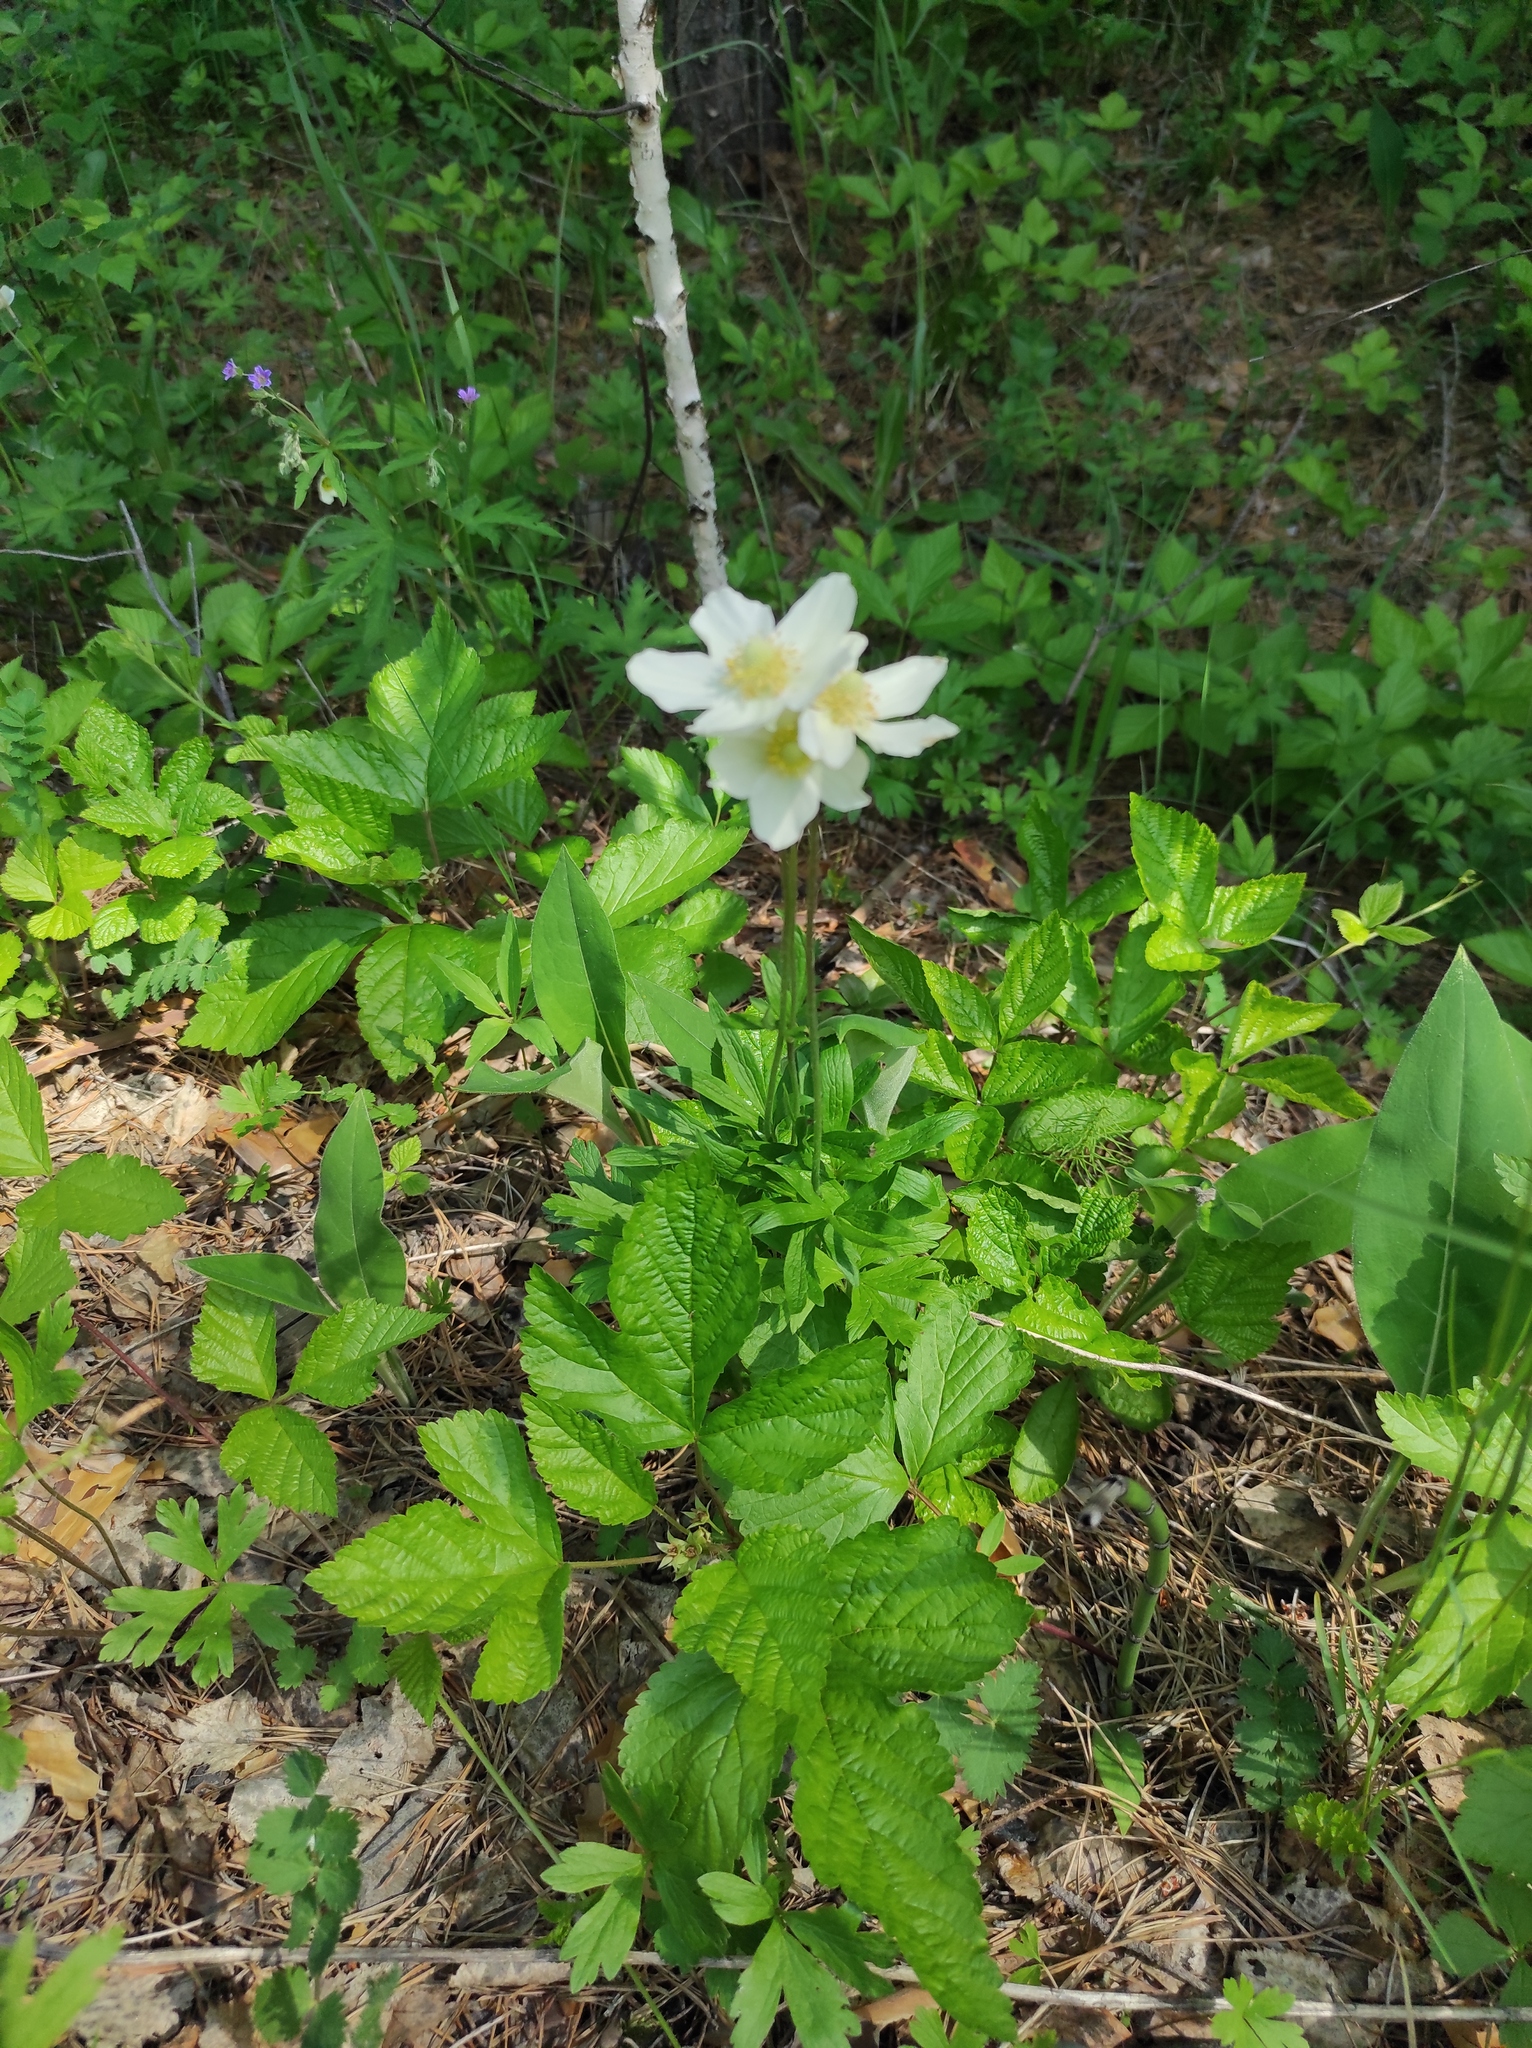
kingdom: Plantae
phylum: Tracheophyta
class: Magnoliopsida
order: Ranunculales
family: Ranunculaceae
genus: Anemone
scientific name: Anemone sylvestris
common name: Snowdrop anemone
